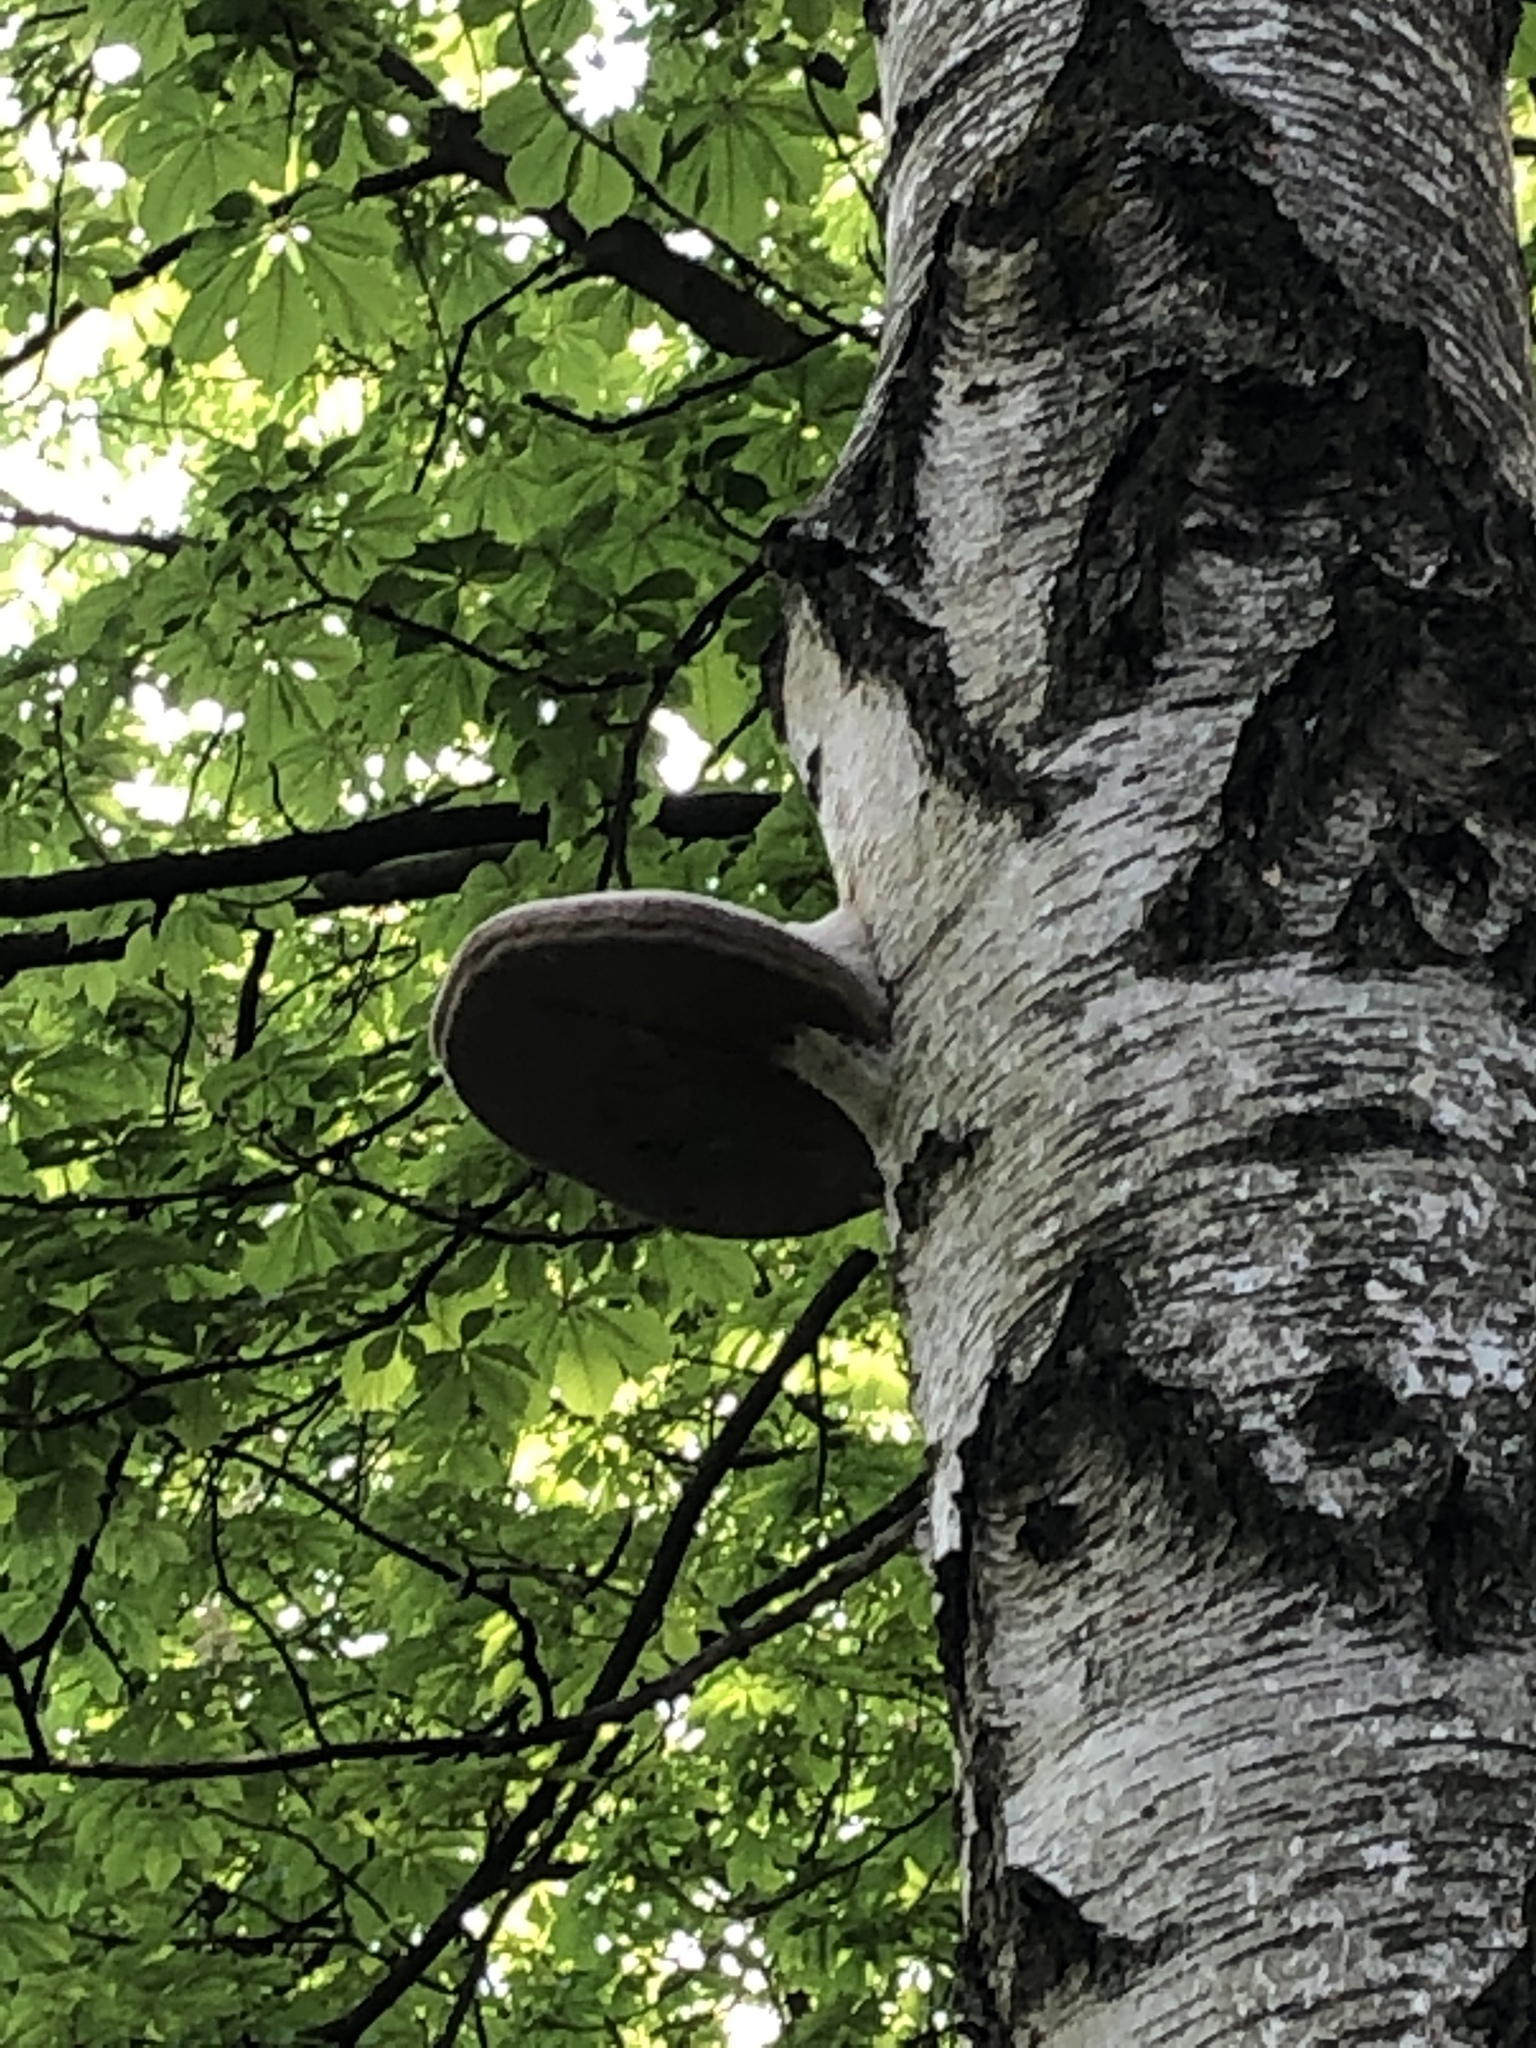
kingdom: Fungi
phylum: Basidiomycota
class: Agaricomycetes
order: Polyporales
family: Polyporaceae
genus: Fomes
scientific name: Fomes fomentarius
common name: Hoof fungus
